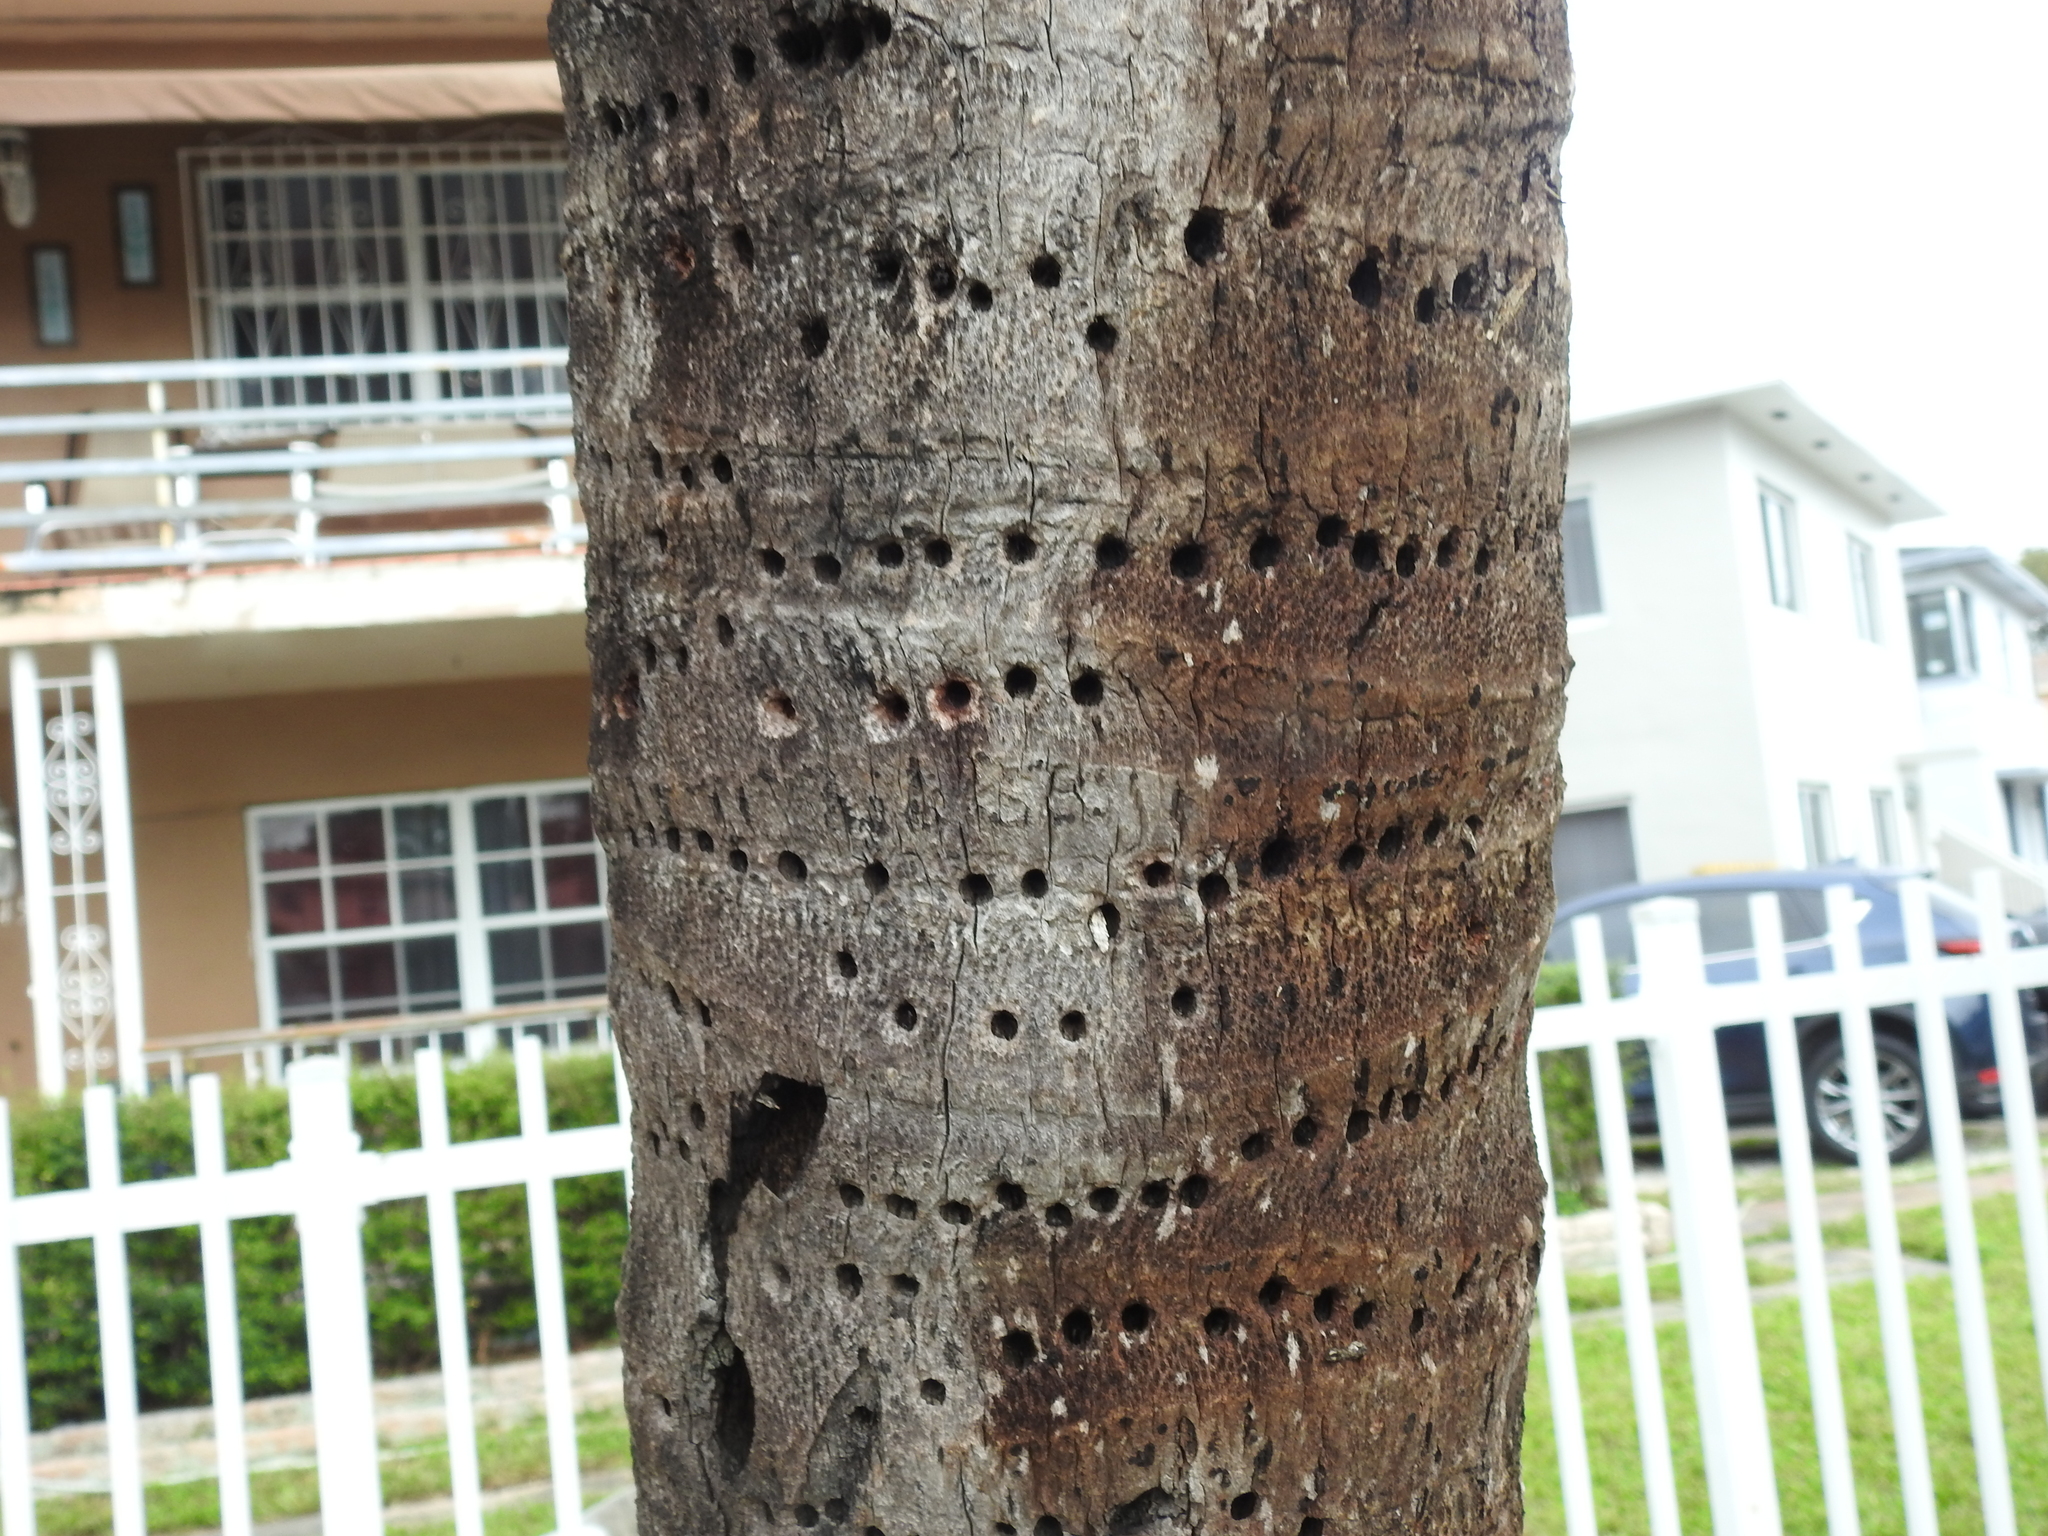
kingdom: Animalia
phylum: Chordata
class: Aves
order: Piciformes
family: Picidae
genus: Sphyrapicus
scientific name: Sphyrapicus varius
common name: Yellow-bellied sapsucker
